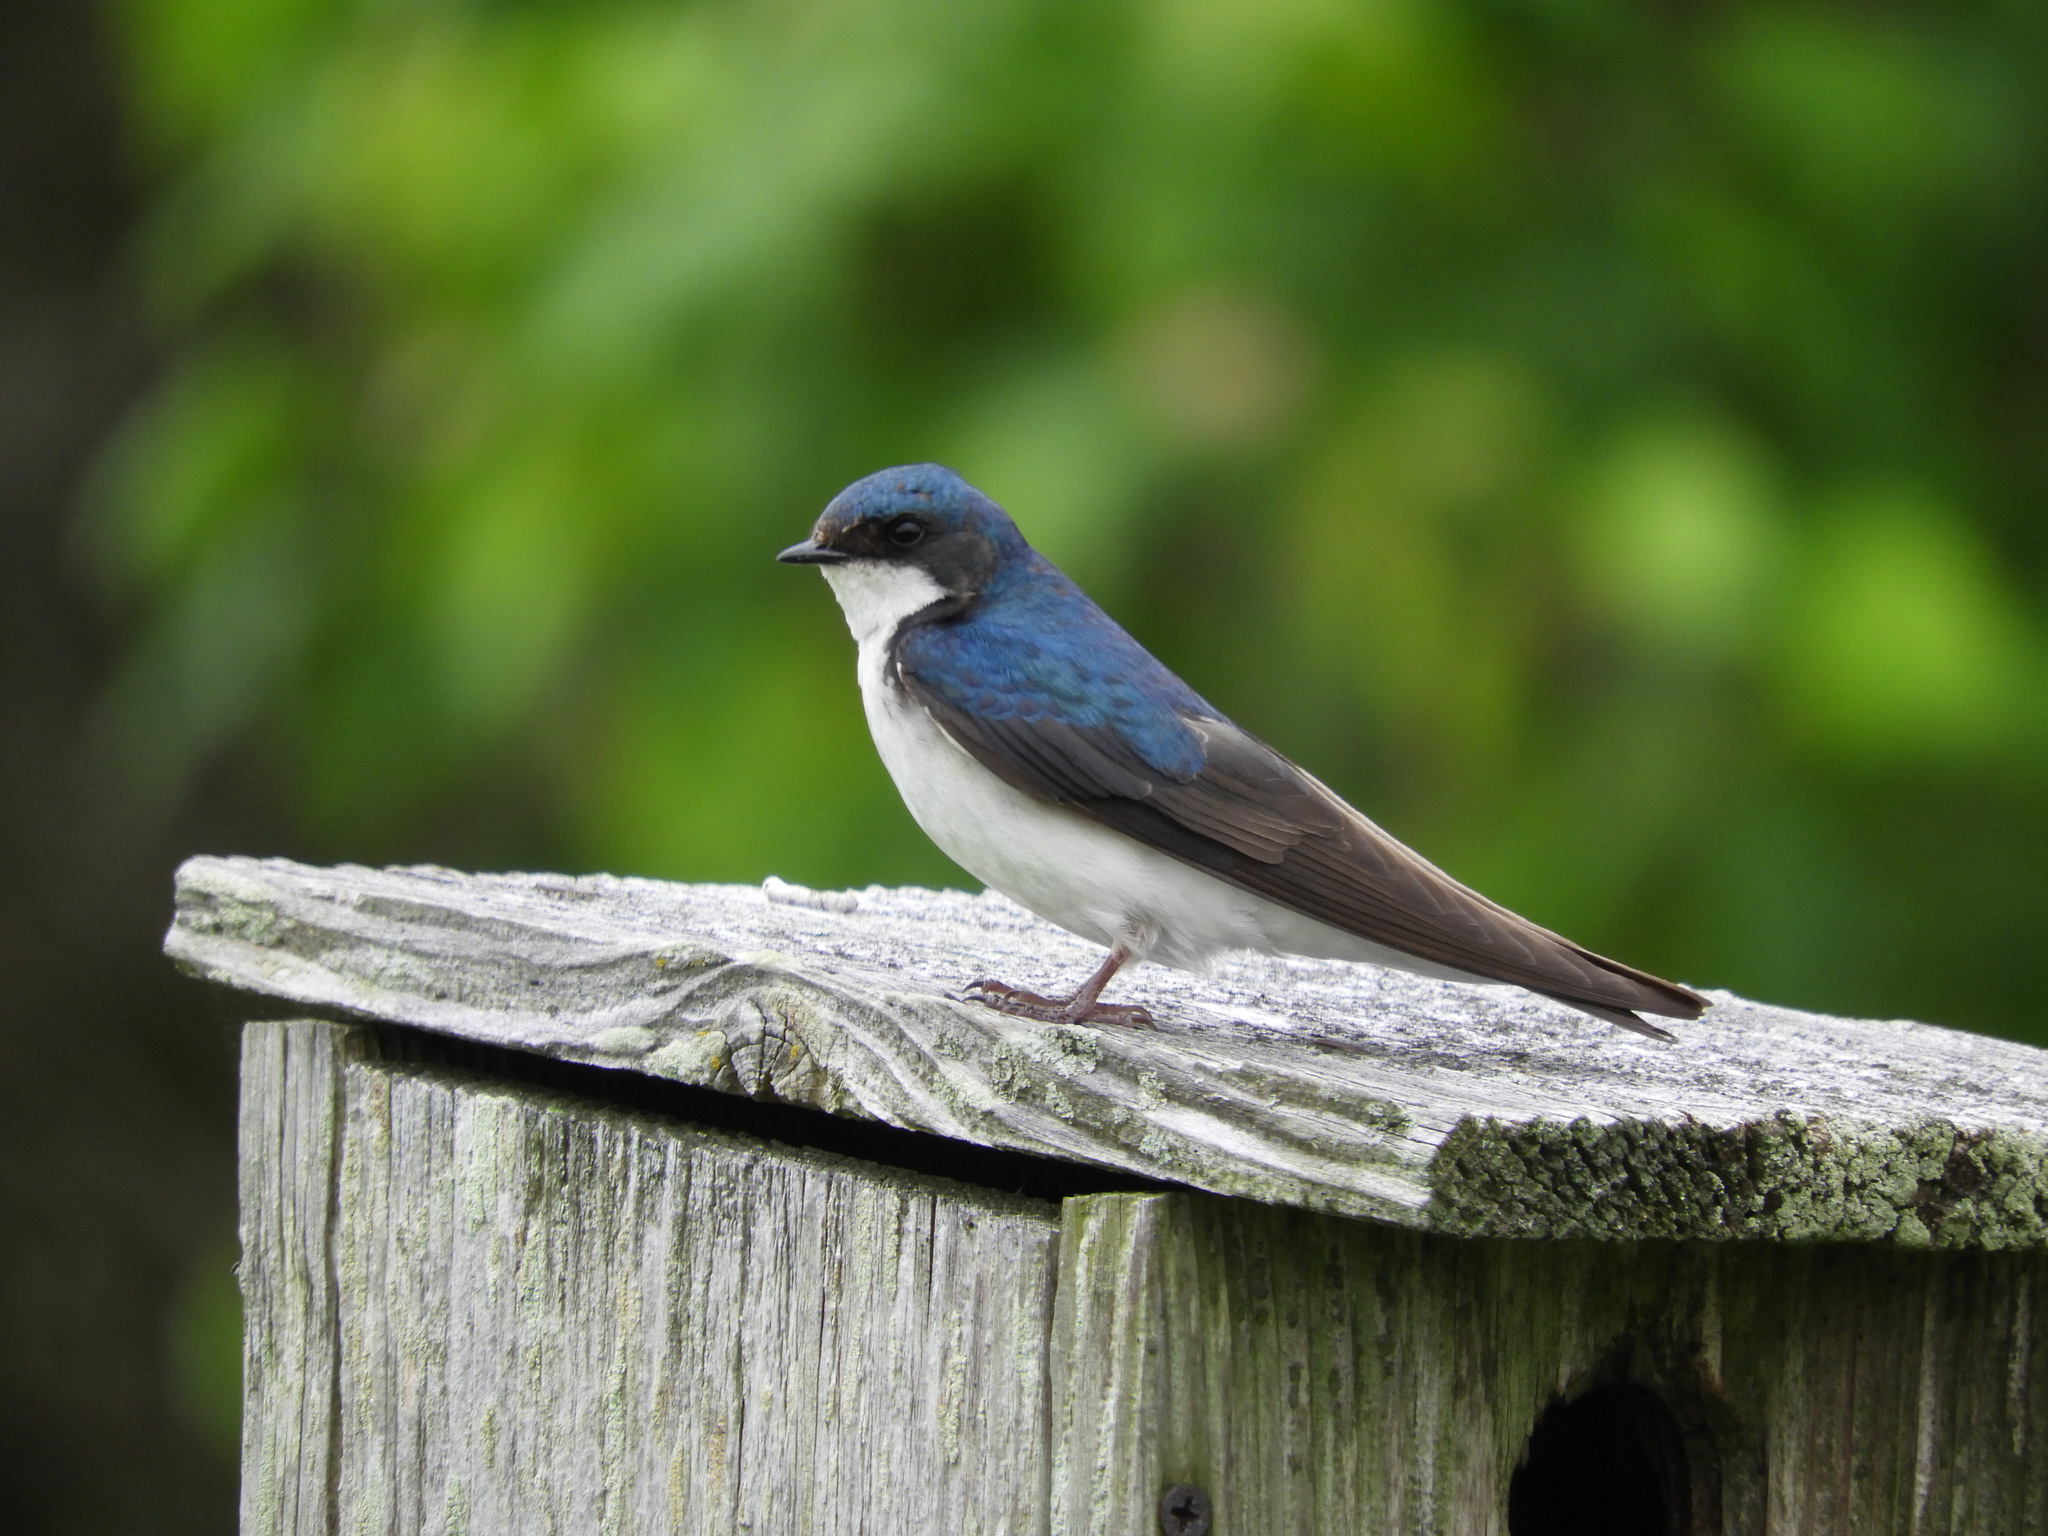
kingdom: Animalia
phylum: Chordata
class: Aves
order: Passeriformes
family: Hirundinidae
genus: Tachycineta
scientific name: Tachycineta bicolor
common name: Tree swallow
